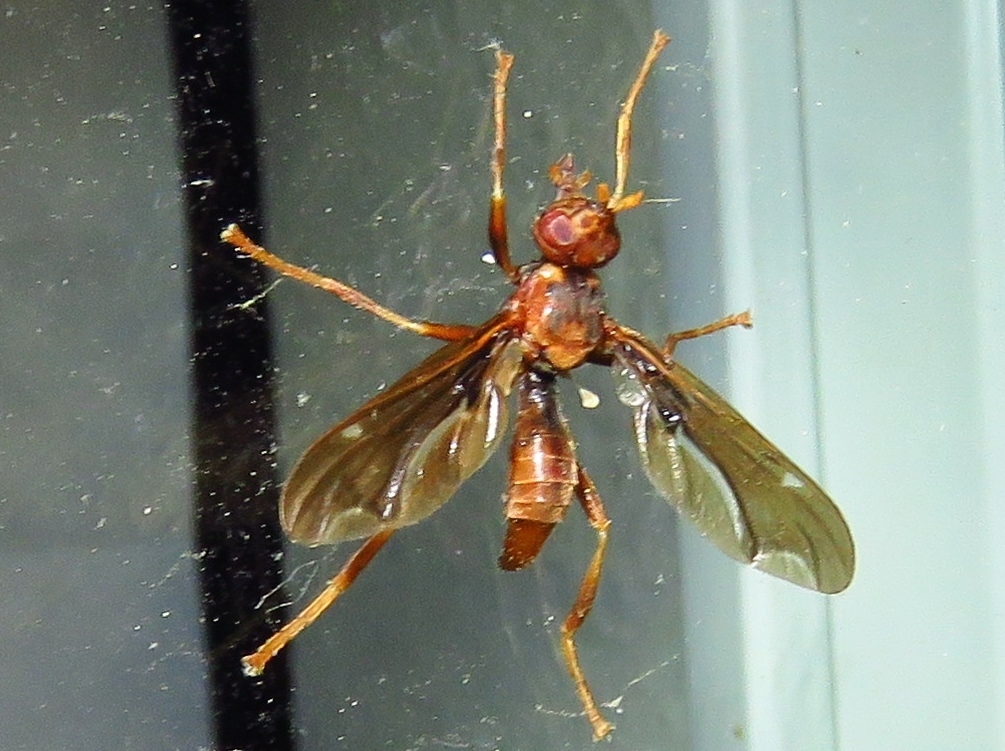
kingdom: Animalia
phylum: Arthropoda
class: Insecta
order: Diptera
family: Pyrgotidae
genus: Pyrgota
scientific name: Pyrgota undata
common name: Waved light fly
